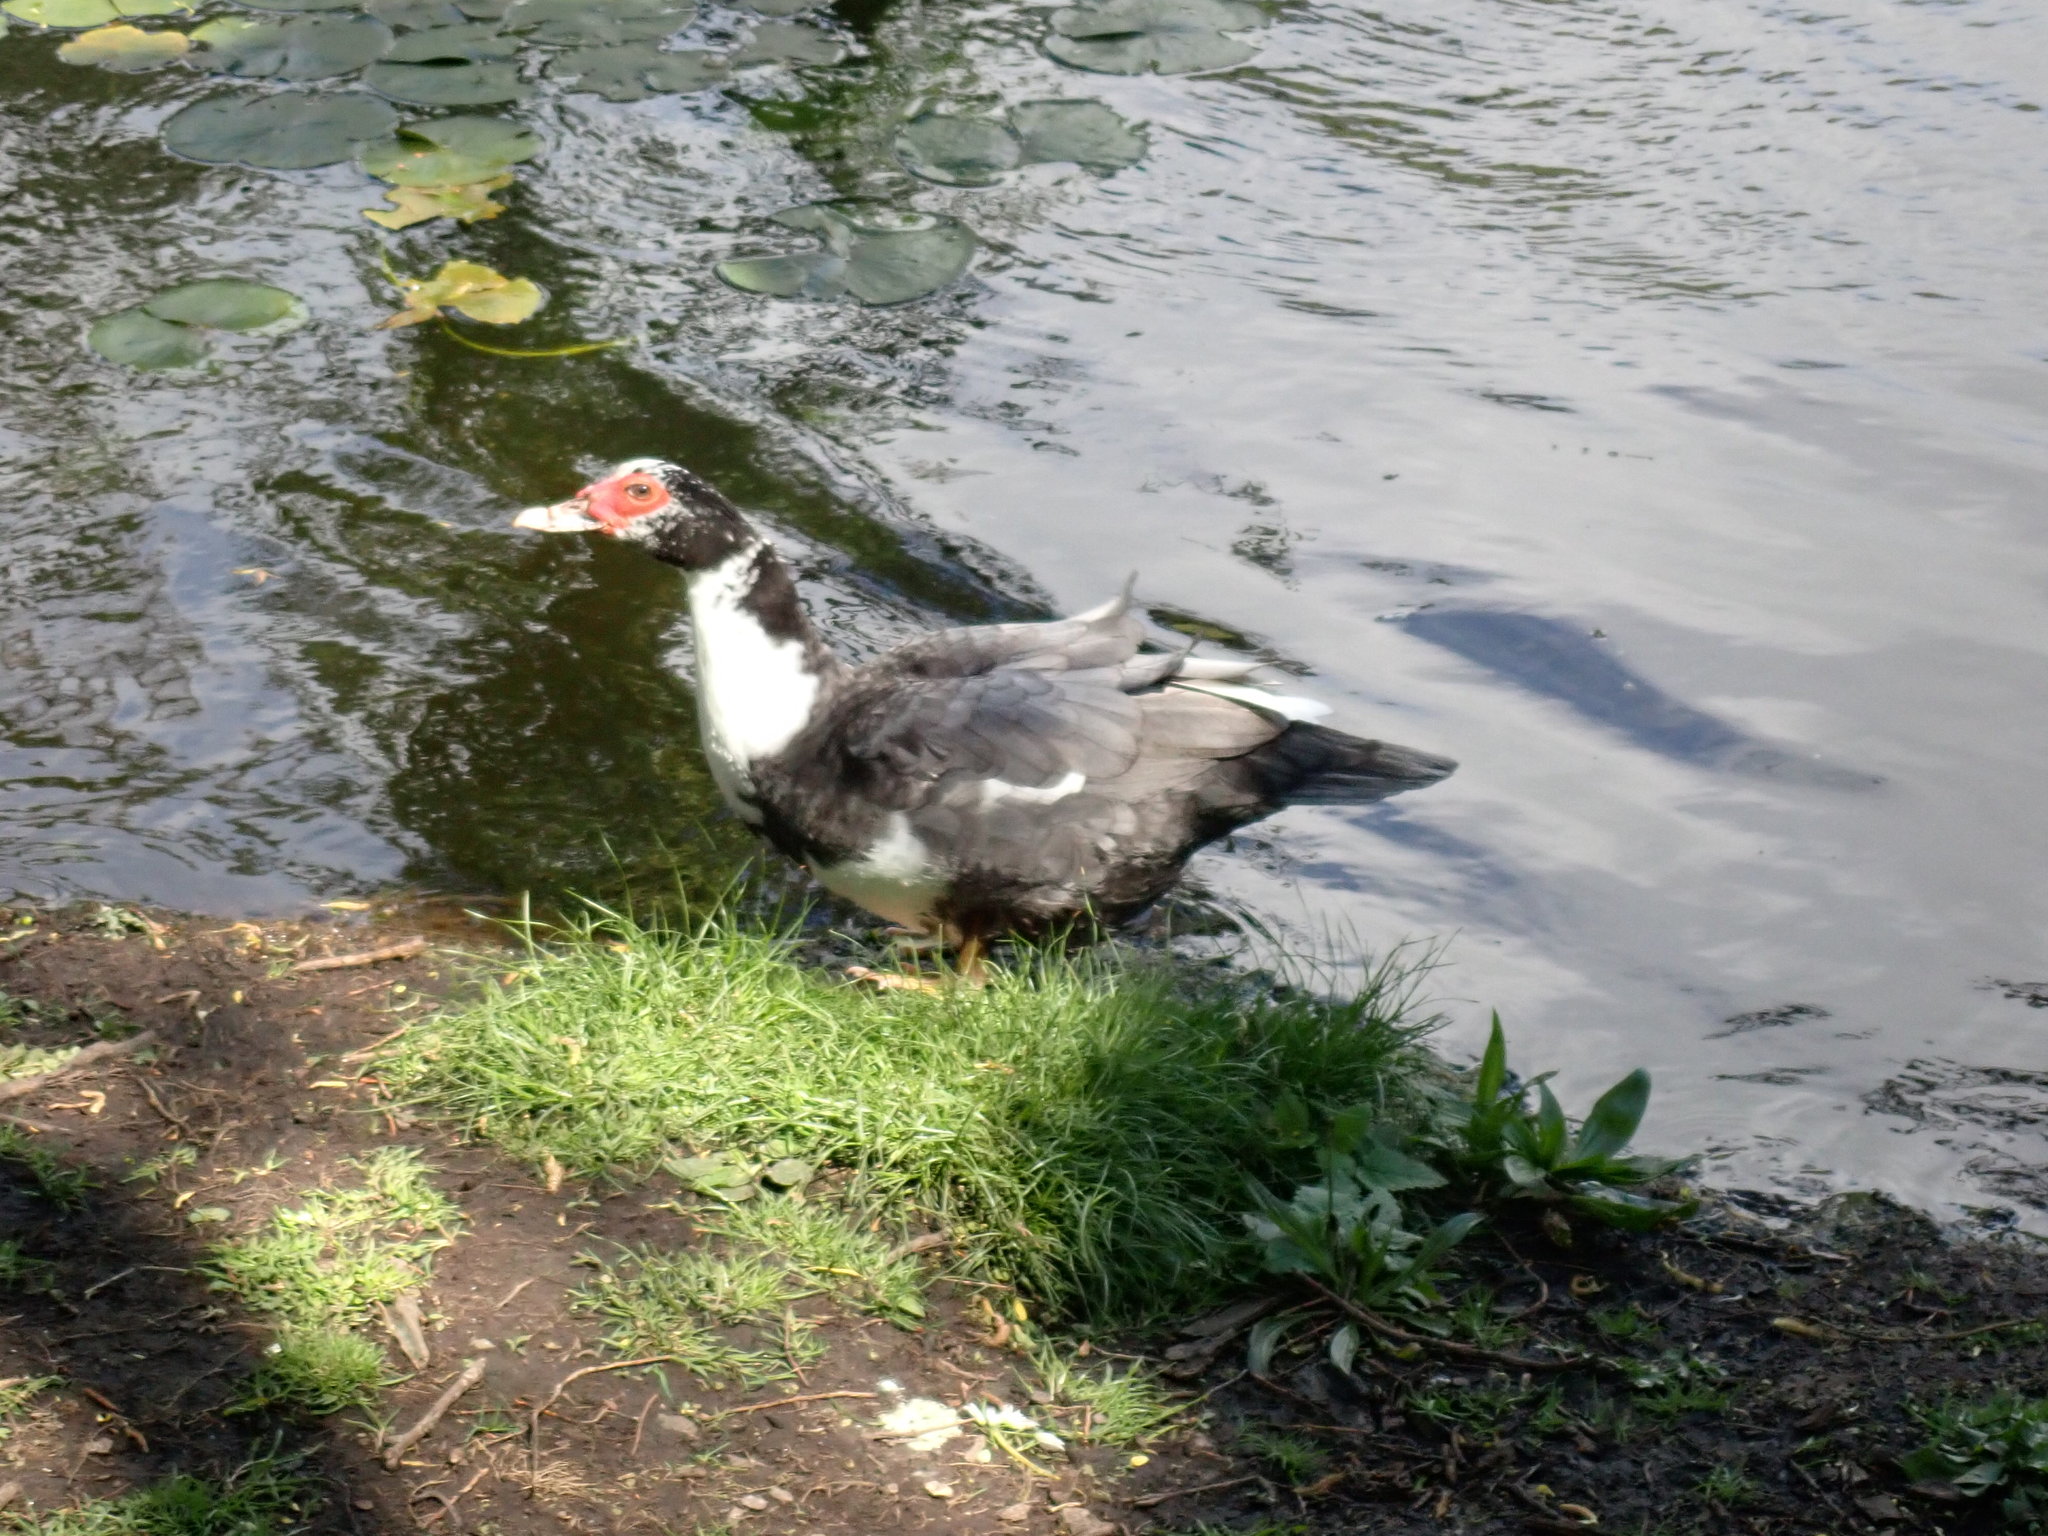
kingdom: Animalia
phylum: Chordata
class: Aves
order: Anseriformes
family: Anatidae
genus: Cairina
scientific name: Cairina moschata
